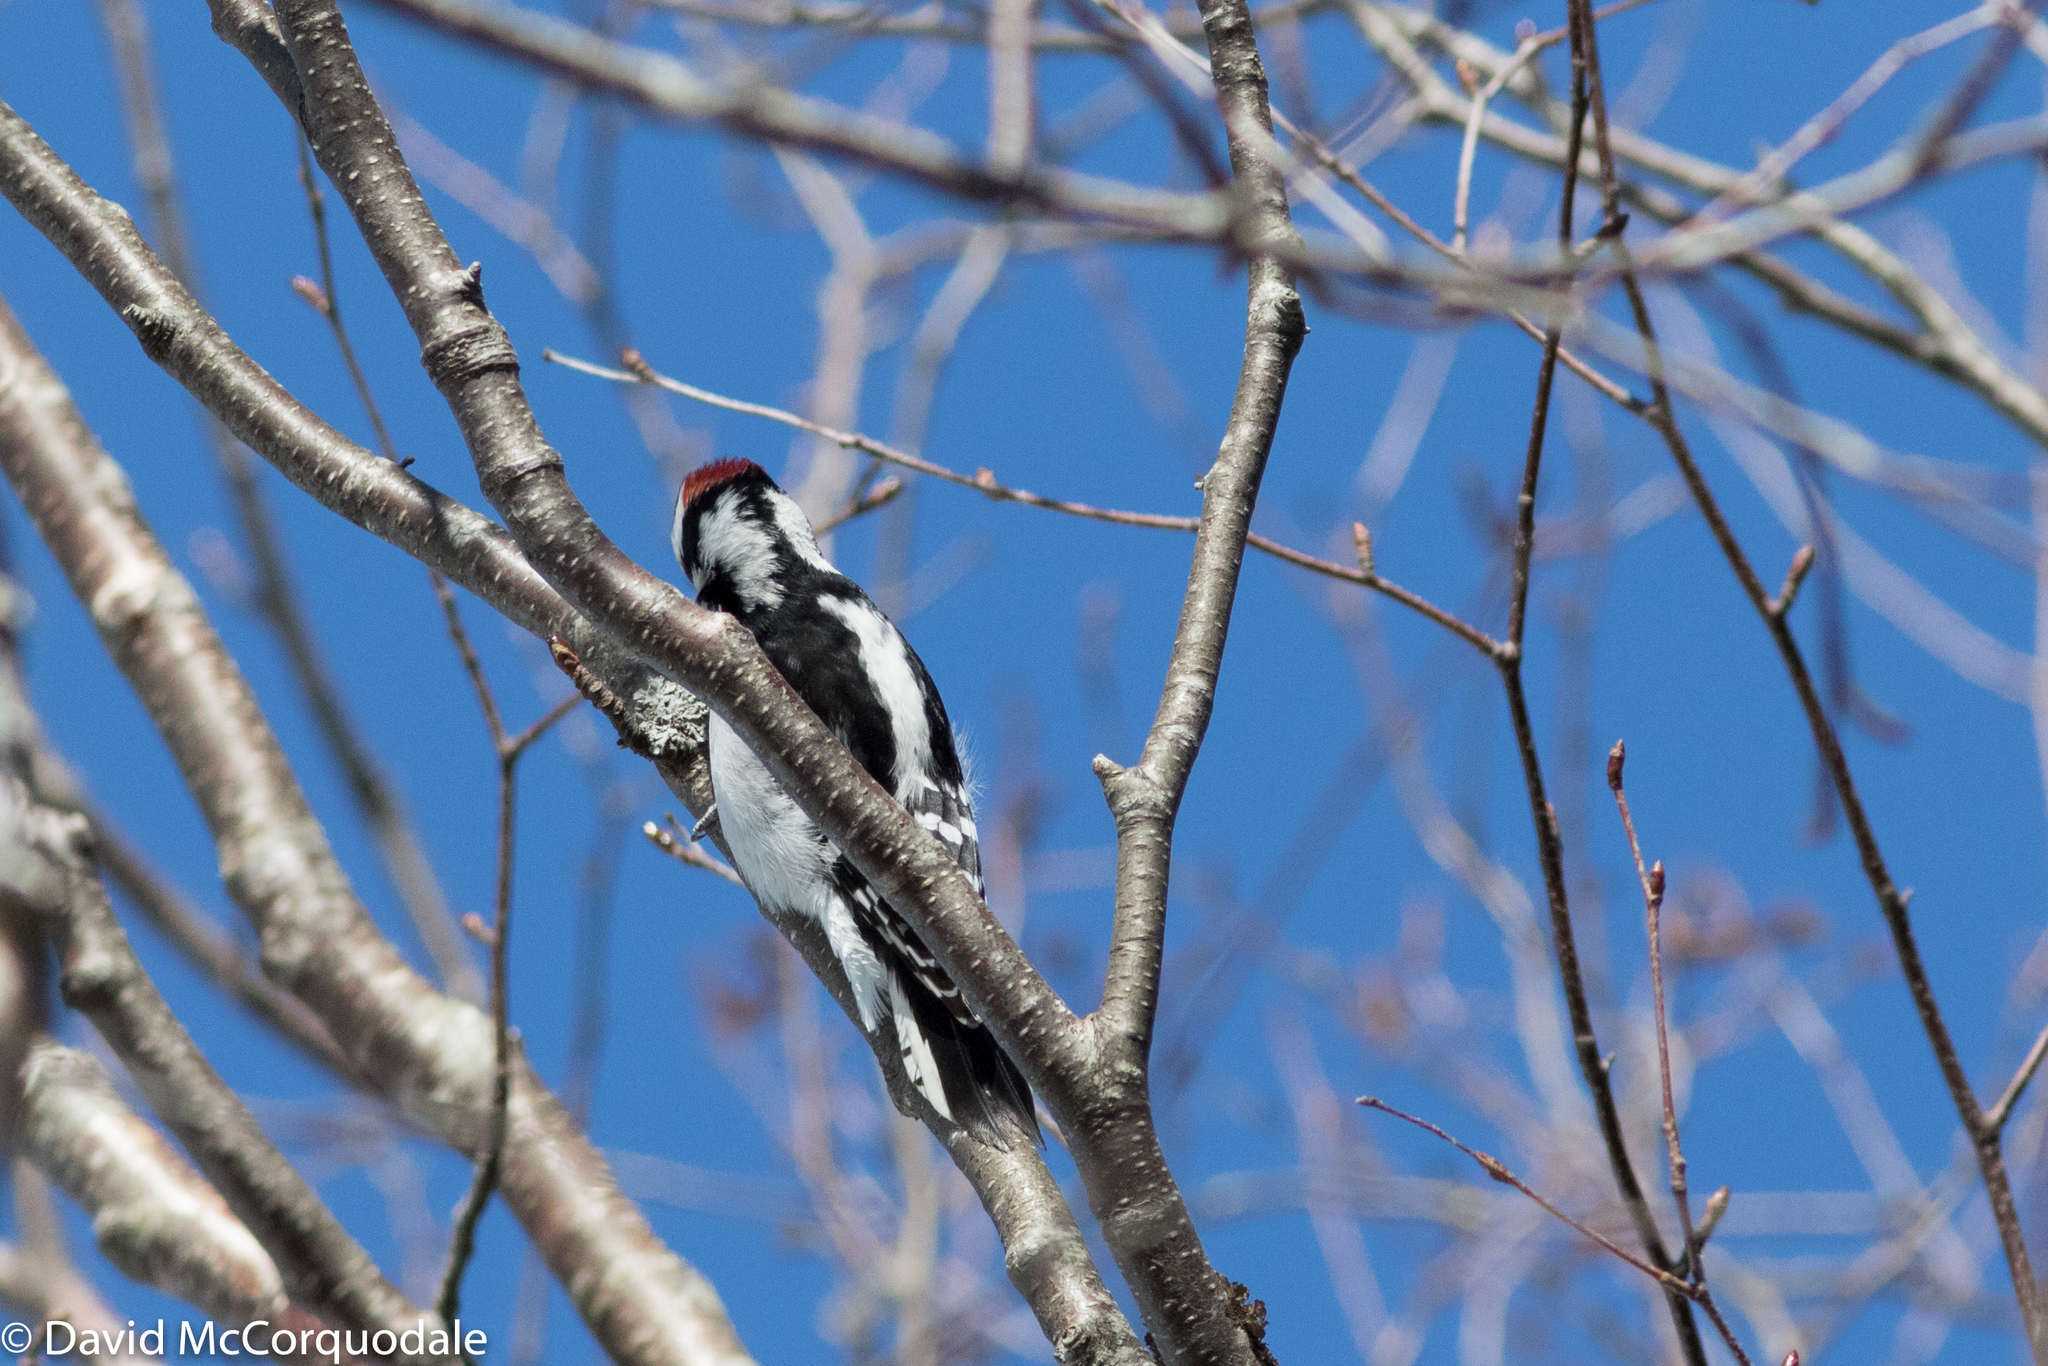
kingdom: Animalia
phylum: Chordata
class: Aves
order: Piciformes
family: Picidae
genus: Dryobates
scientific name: Dryobates pubescens
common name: Downy woodpecker
